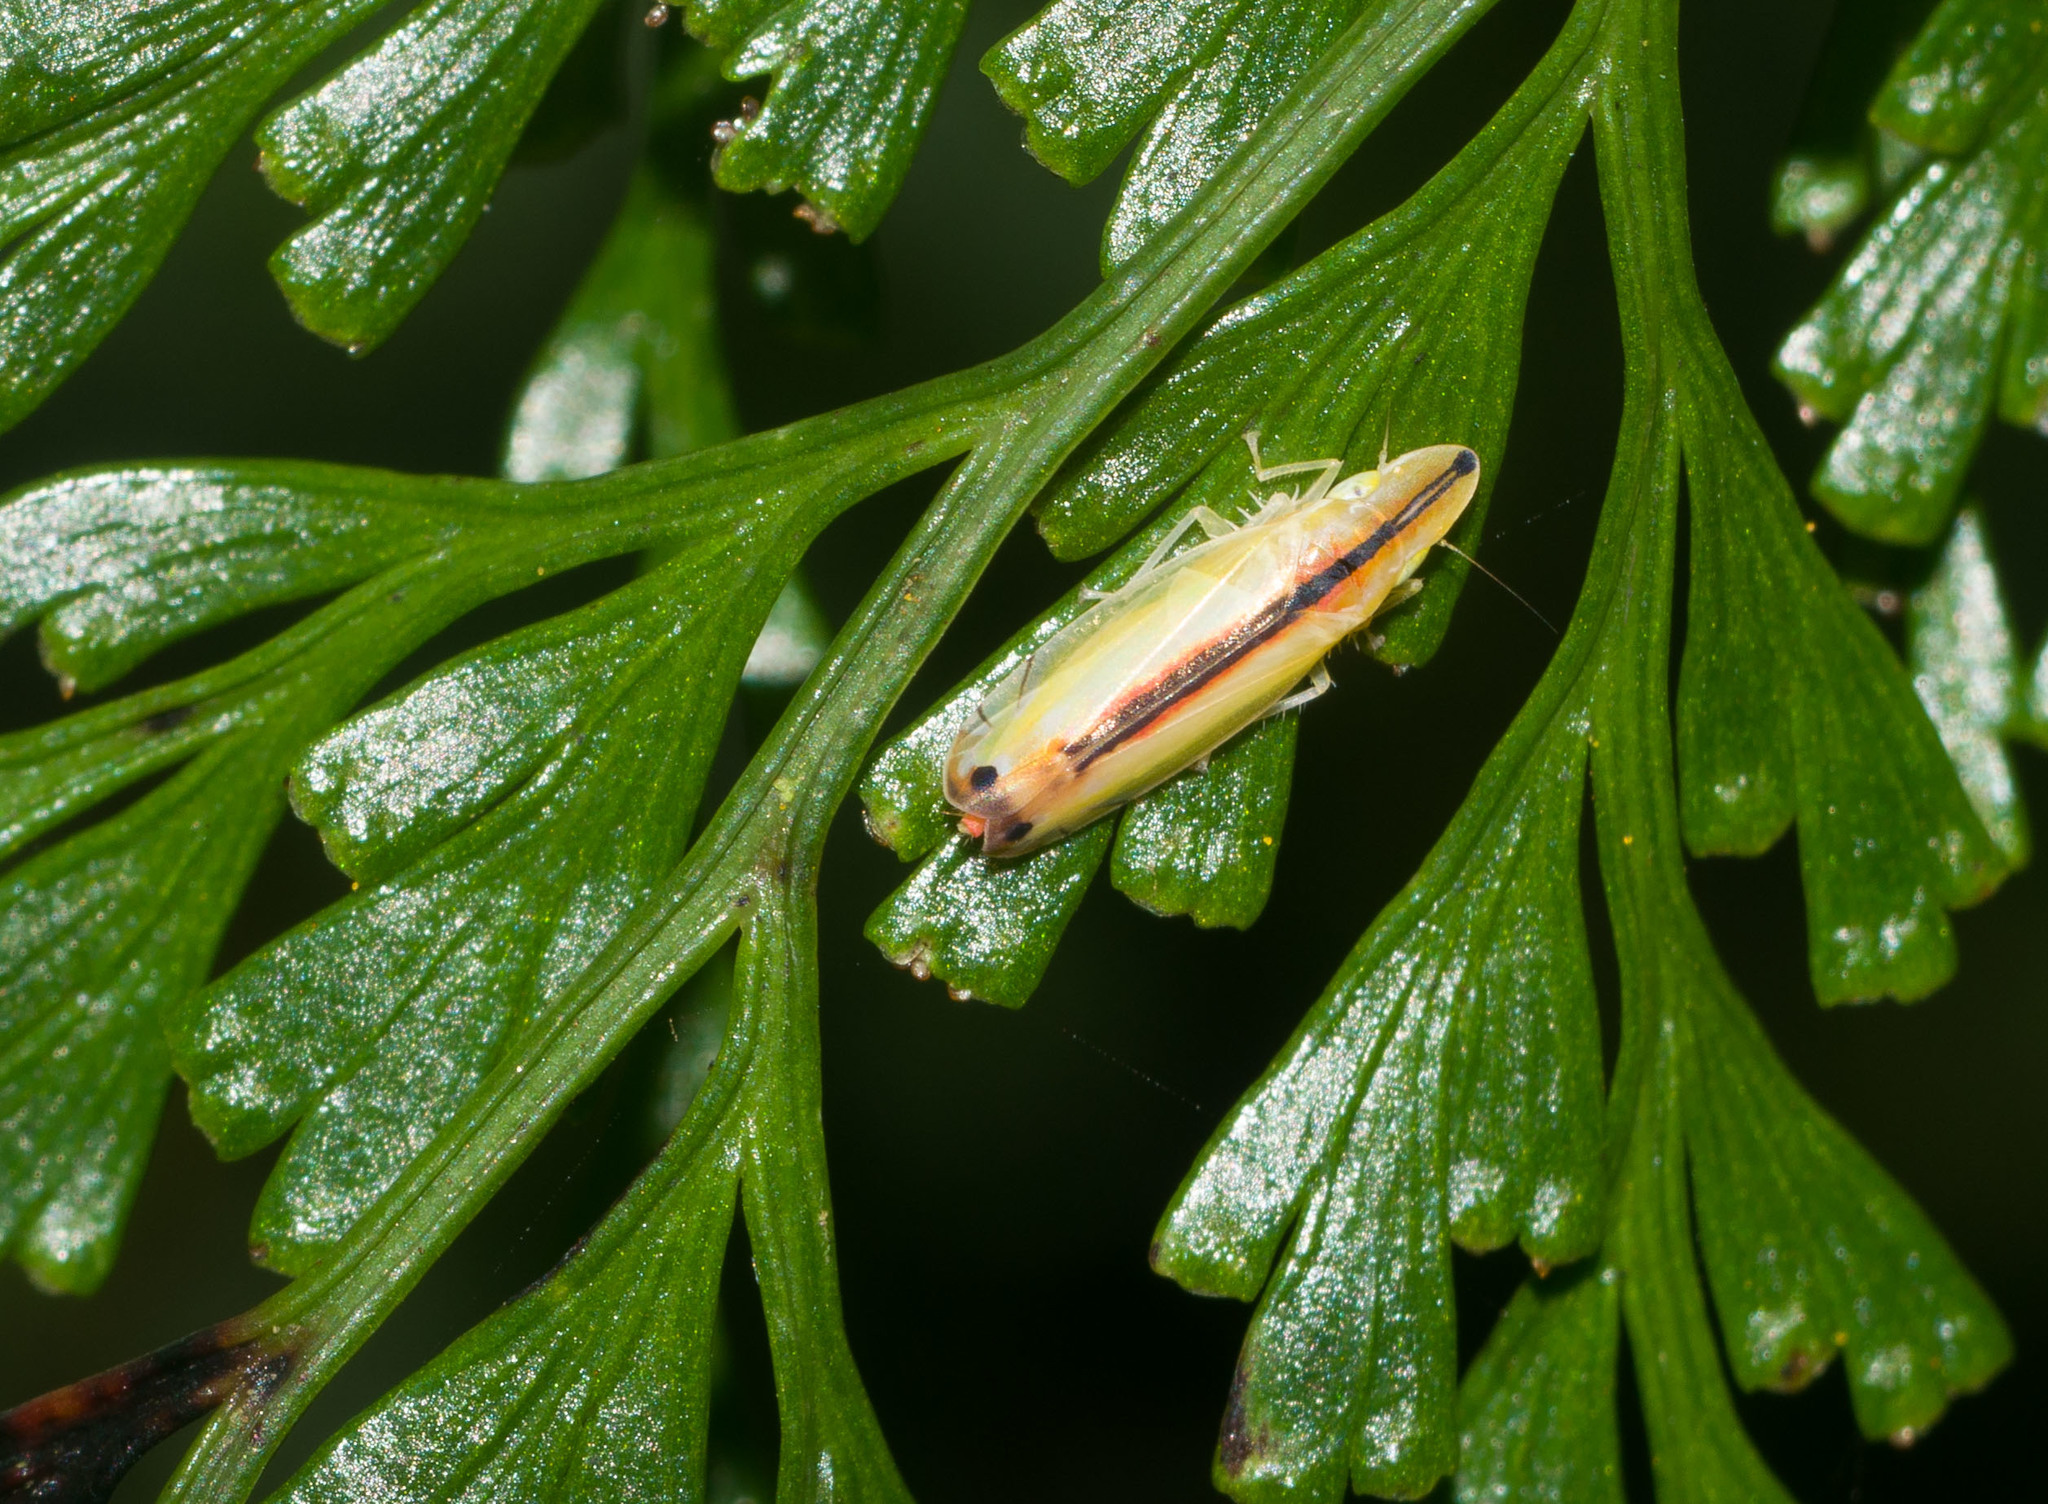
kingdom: Animalia
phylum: Arthropoda
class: Insecta
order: Hemiptera
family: Cicadellidae
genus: Sophonia
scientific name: Sophonia orientalis
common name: Two-spotted leafhopper
